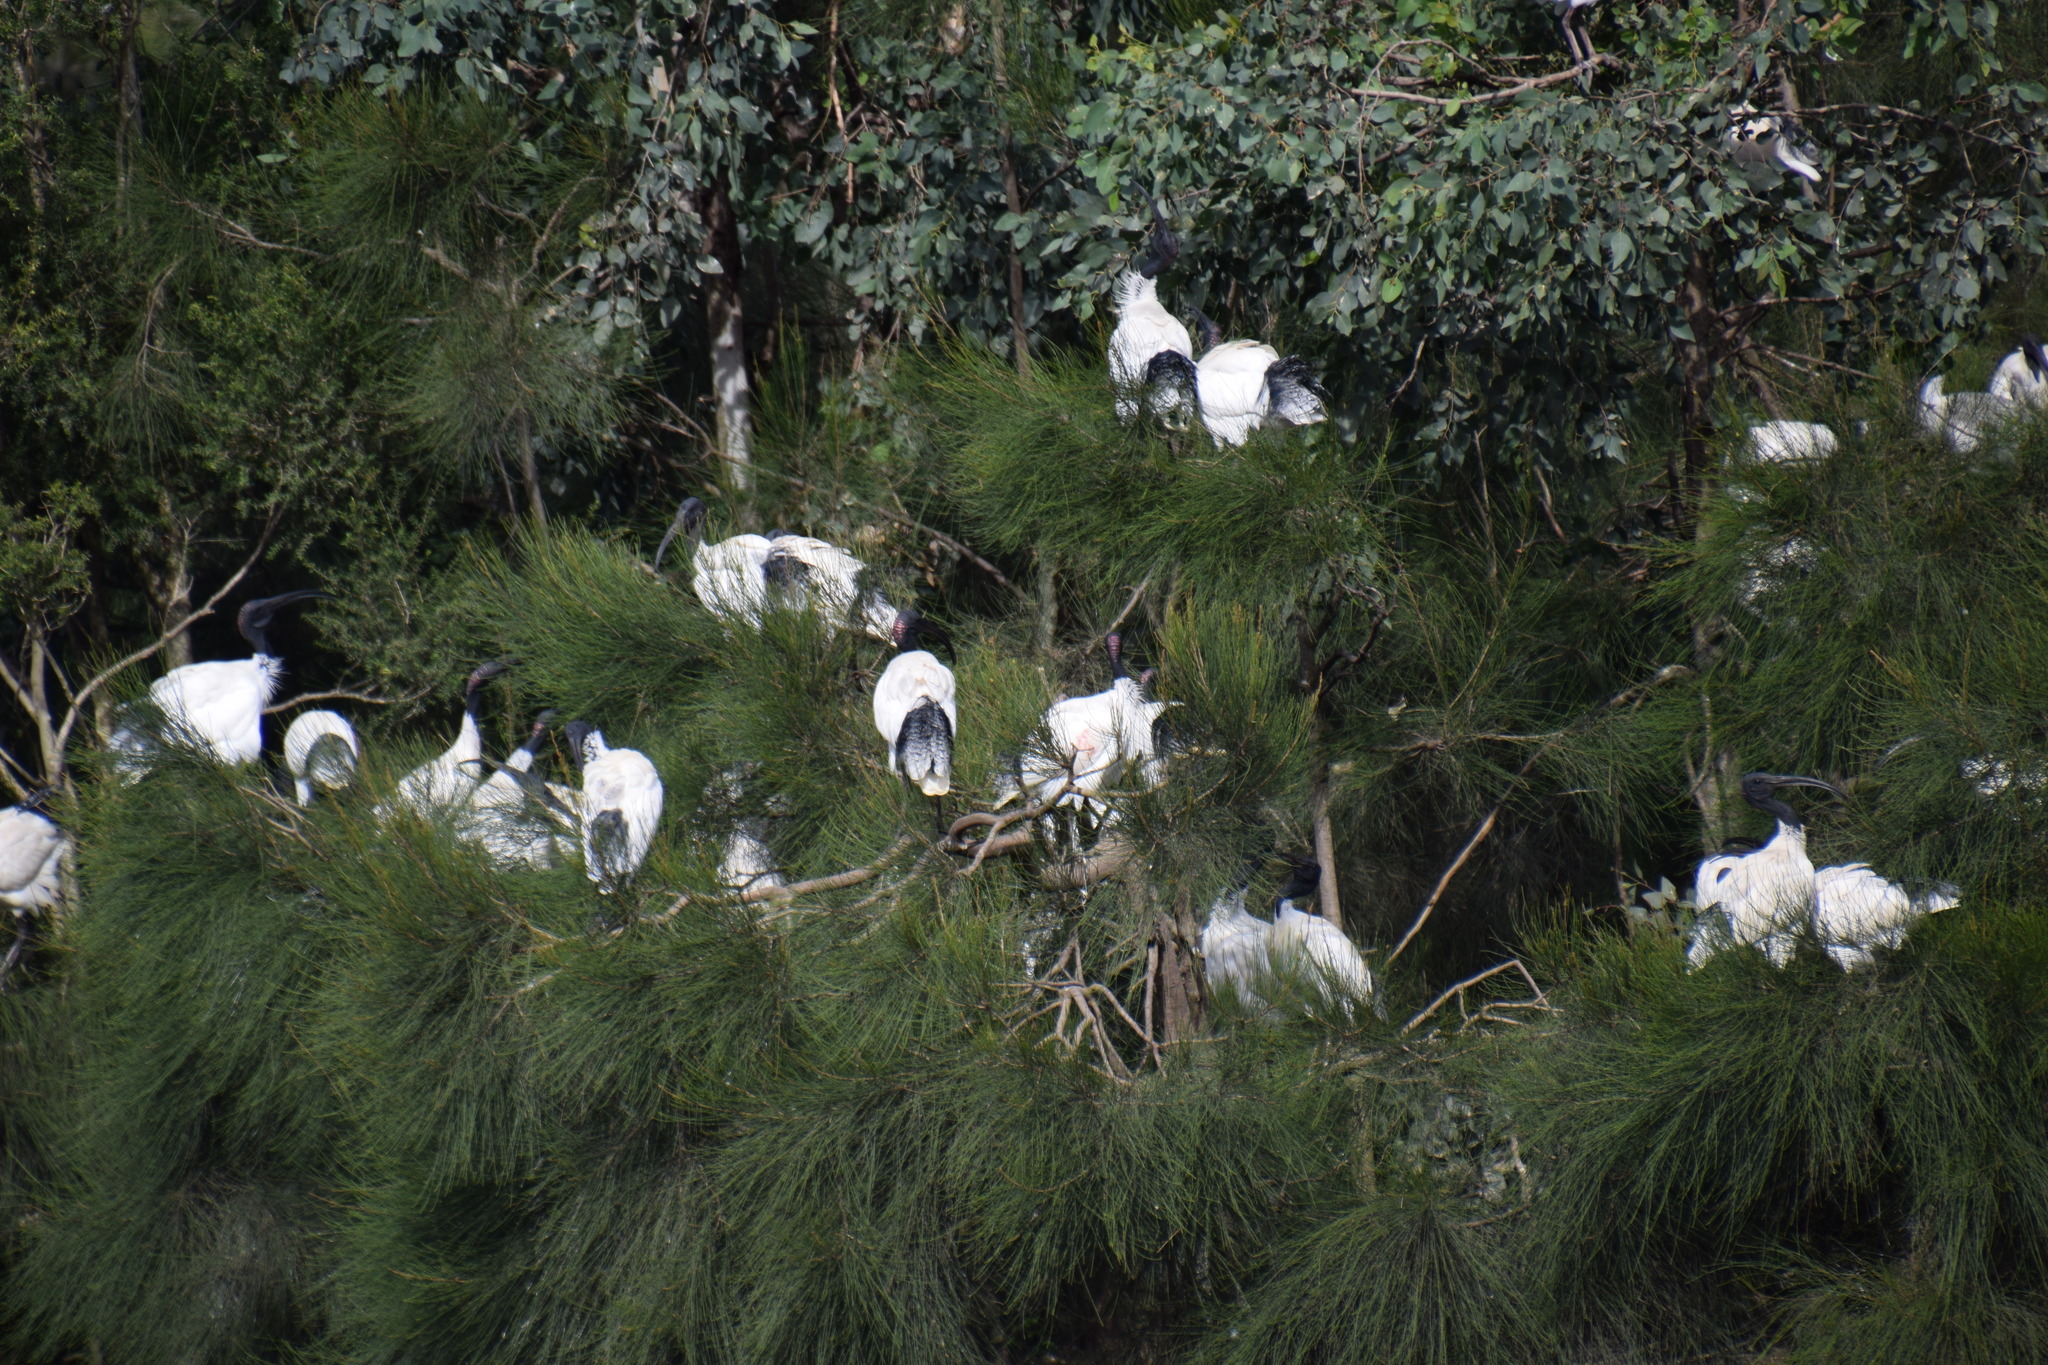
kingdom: Animalia
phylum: Chordata
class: Aves
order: Pelecaniformes
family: Threskiornithidae
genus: Threskiornis
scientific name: Threskiornis molucca
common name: Australian white ibis
